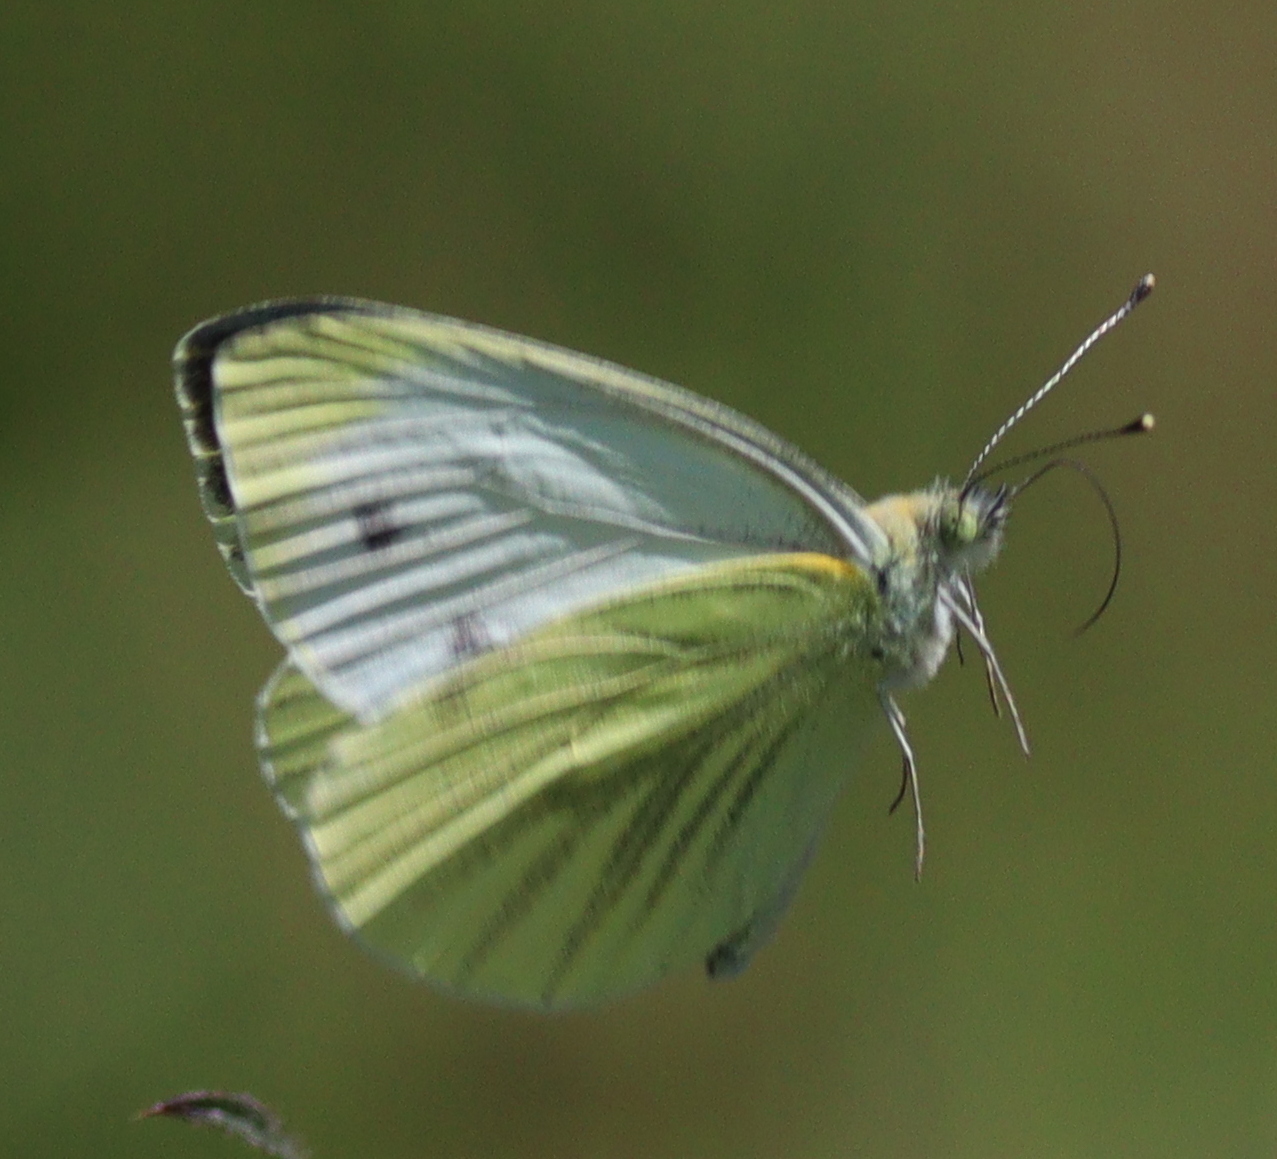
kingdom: Animalia
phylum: Arthropoda
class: Insecta
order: Lepidoptera
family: Pieridae
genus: Pieris
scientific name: Pieris napi
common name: Green-veined white
